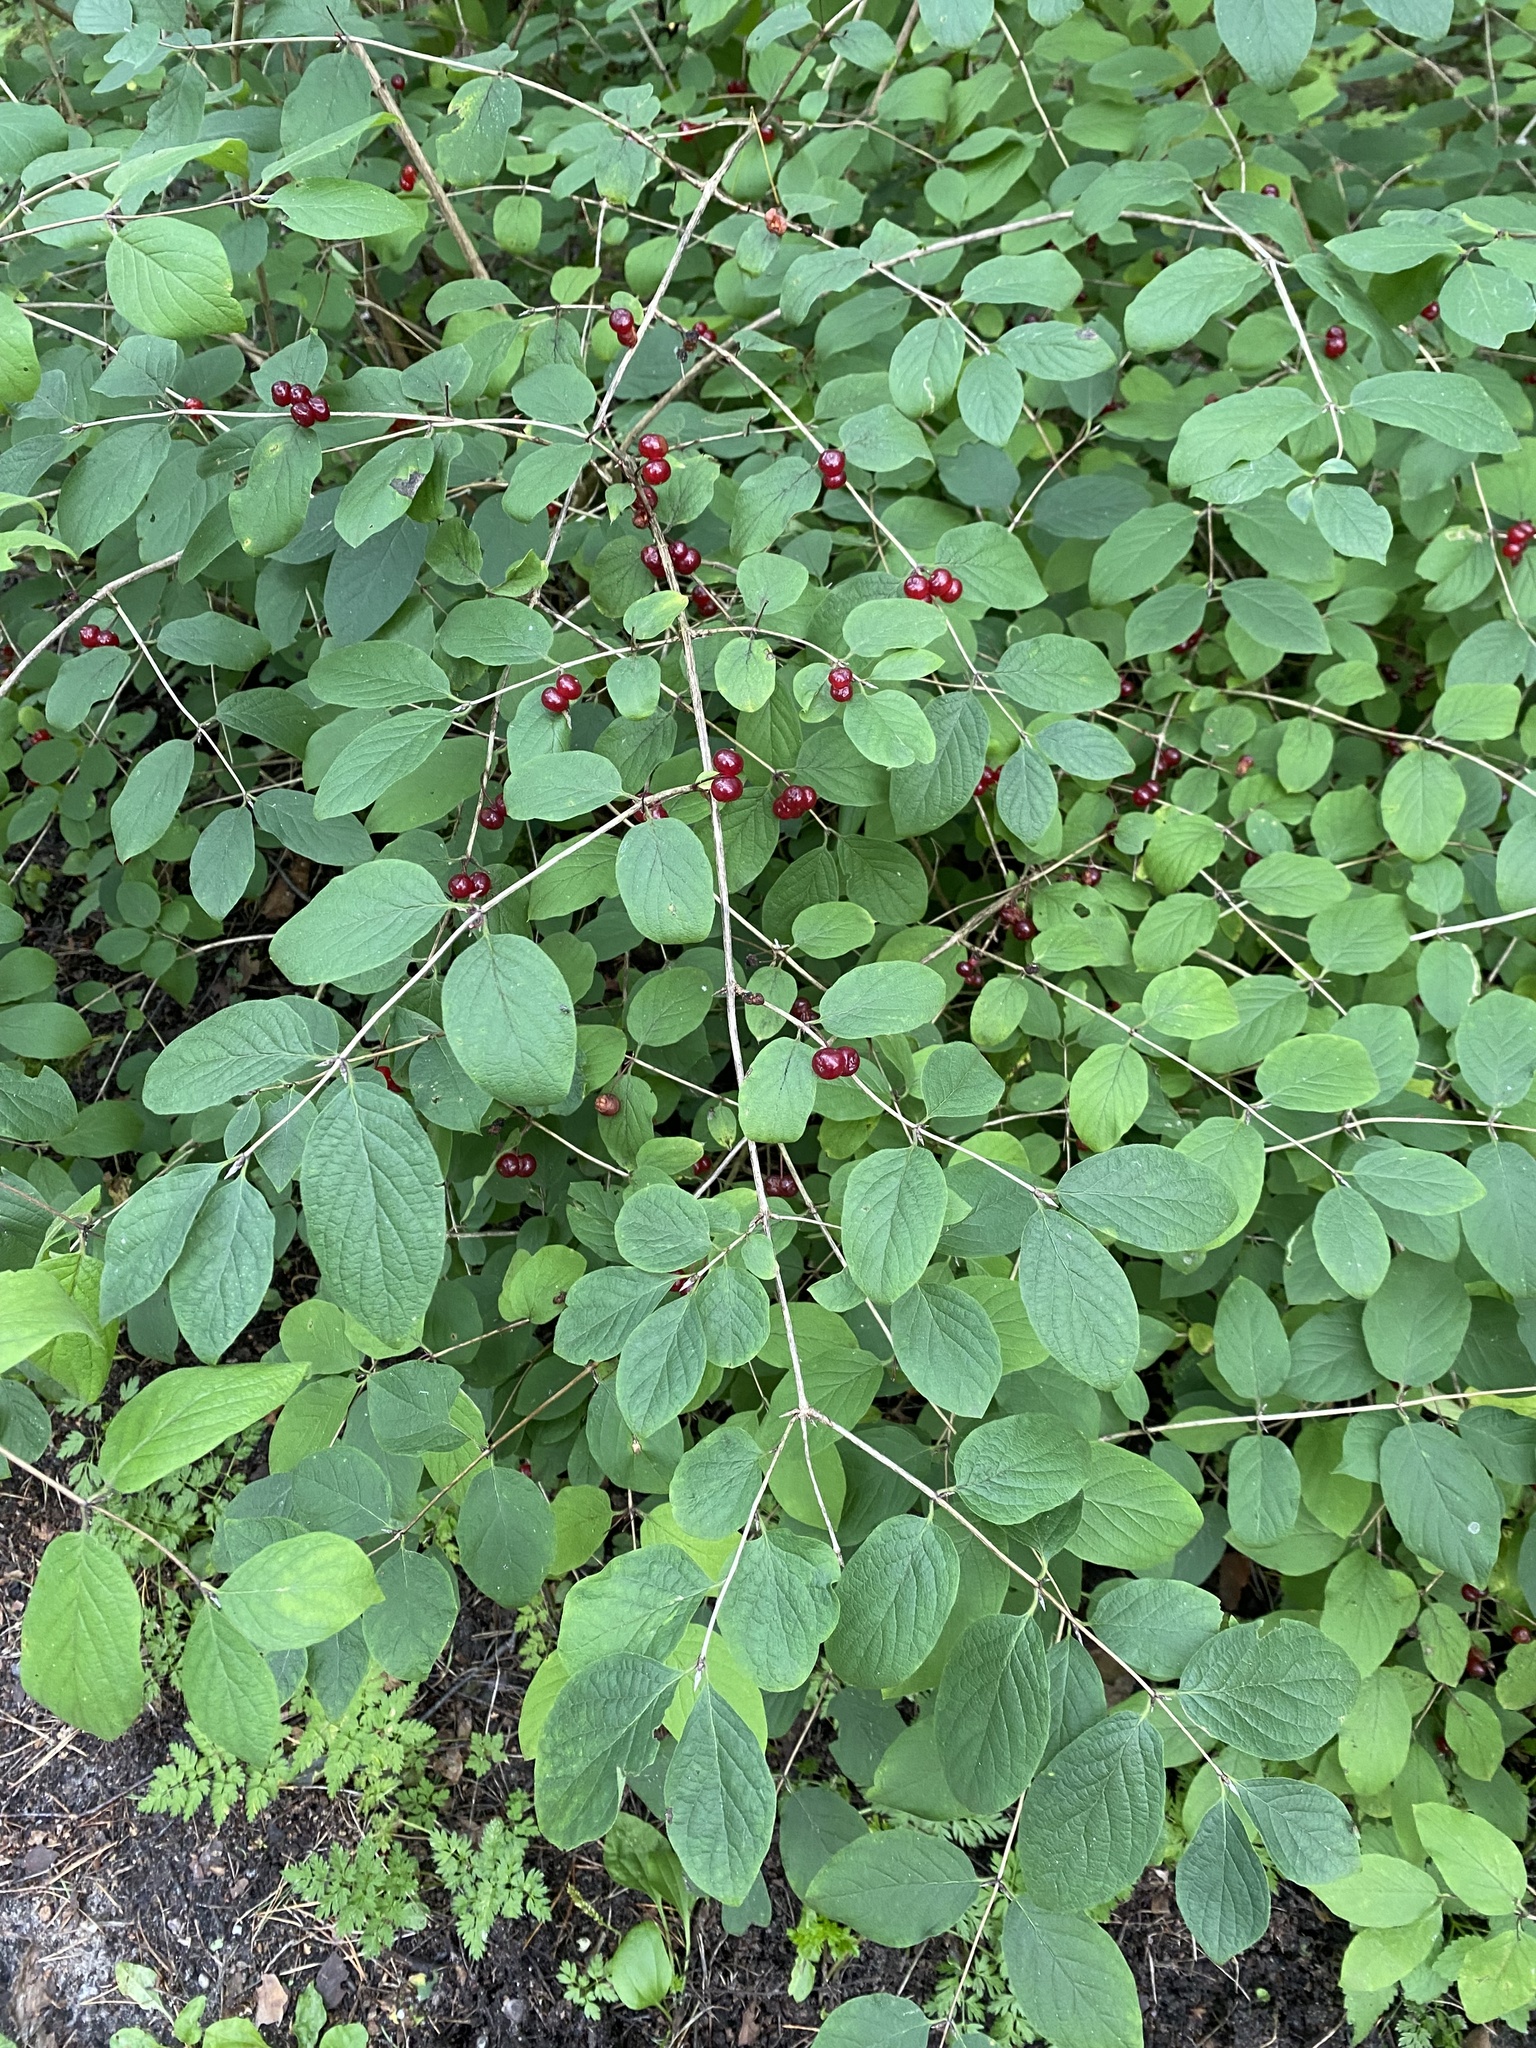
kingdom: Plantae
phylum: Tracheophyta
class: Magnoliopsida
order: Dipsacales
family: Caprifoliaceae
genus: Lonicera
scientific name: Lonicera xylosteum
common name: Fly honeysuckle
